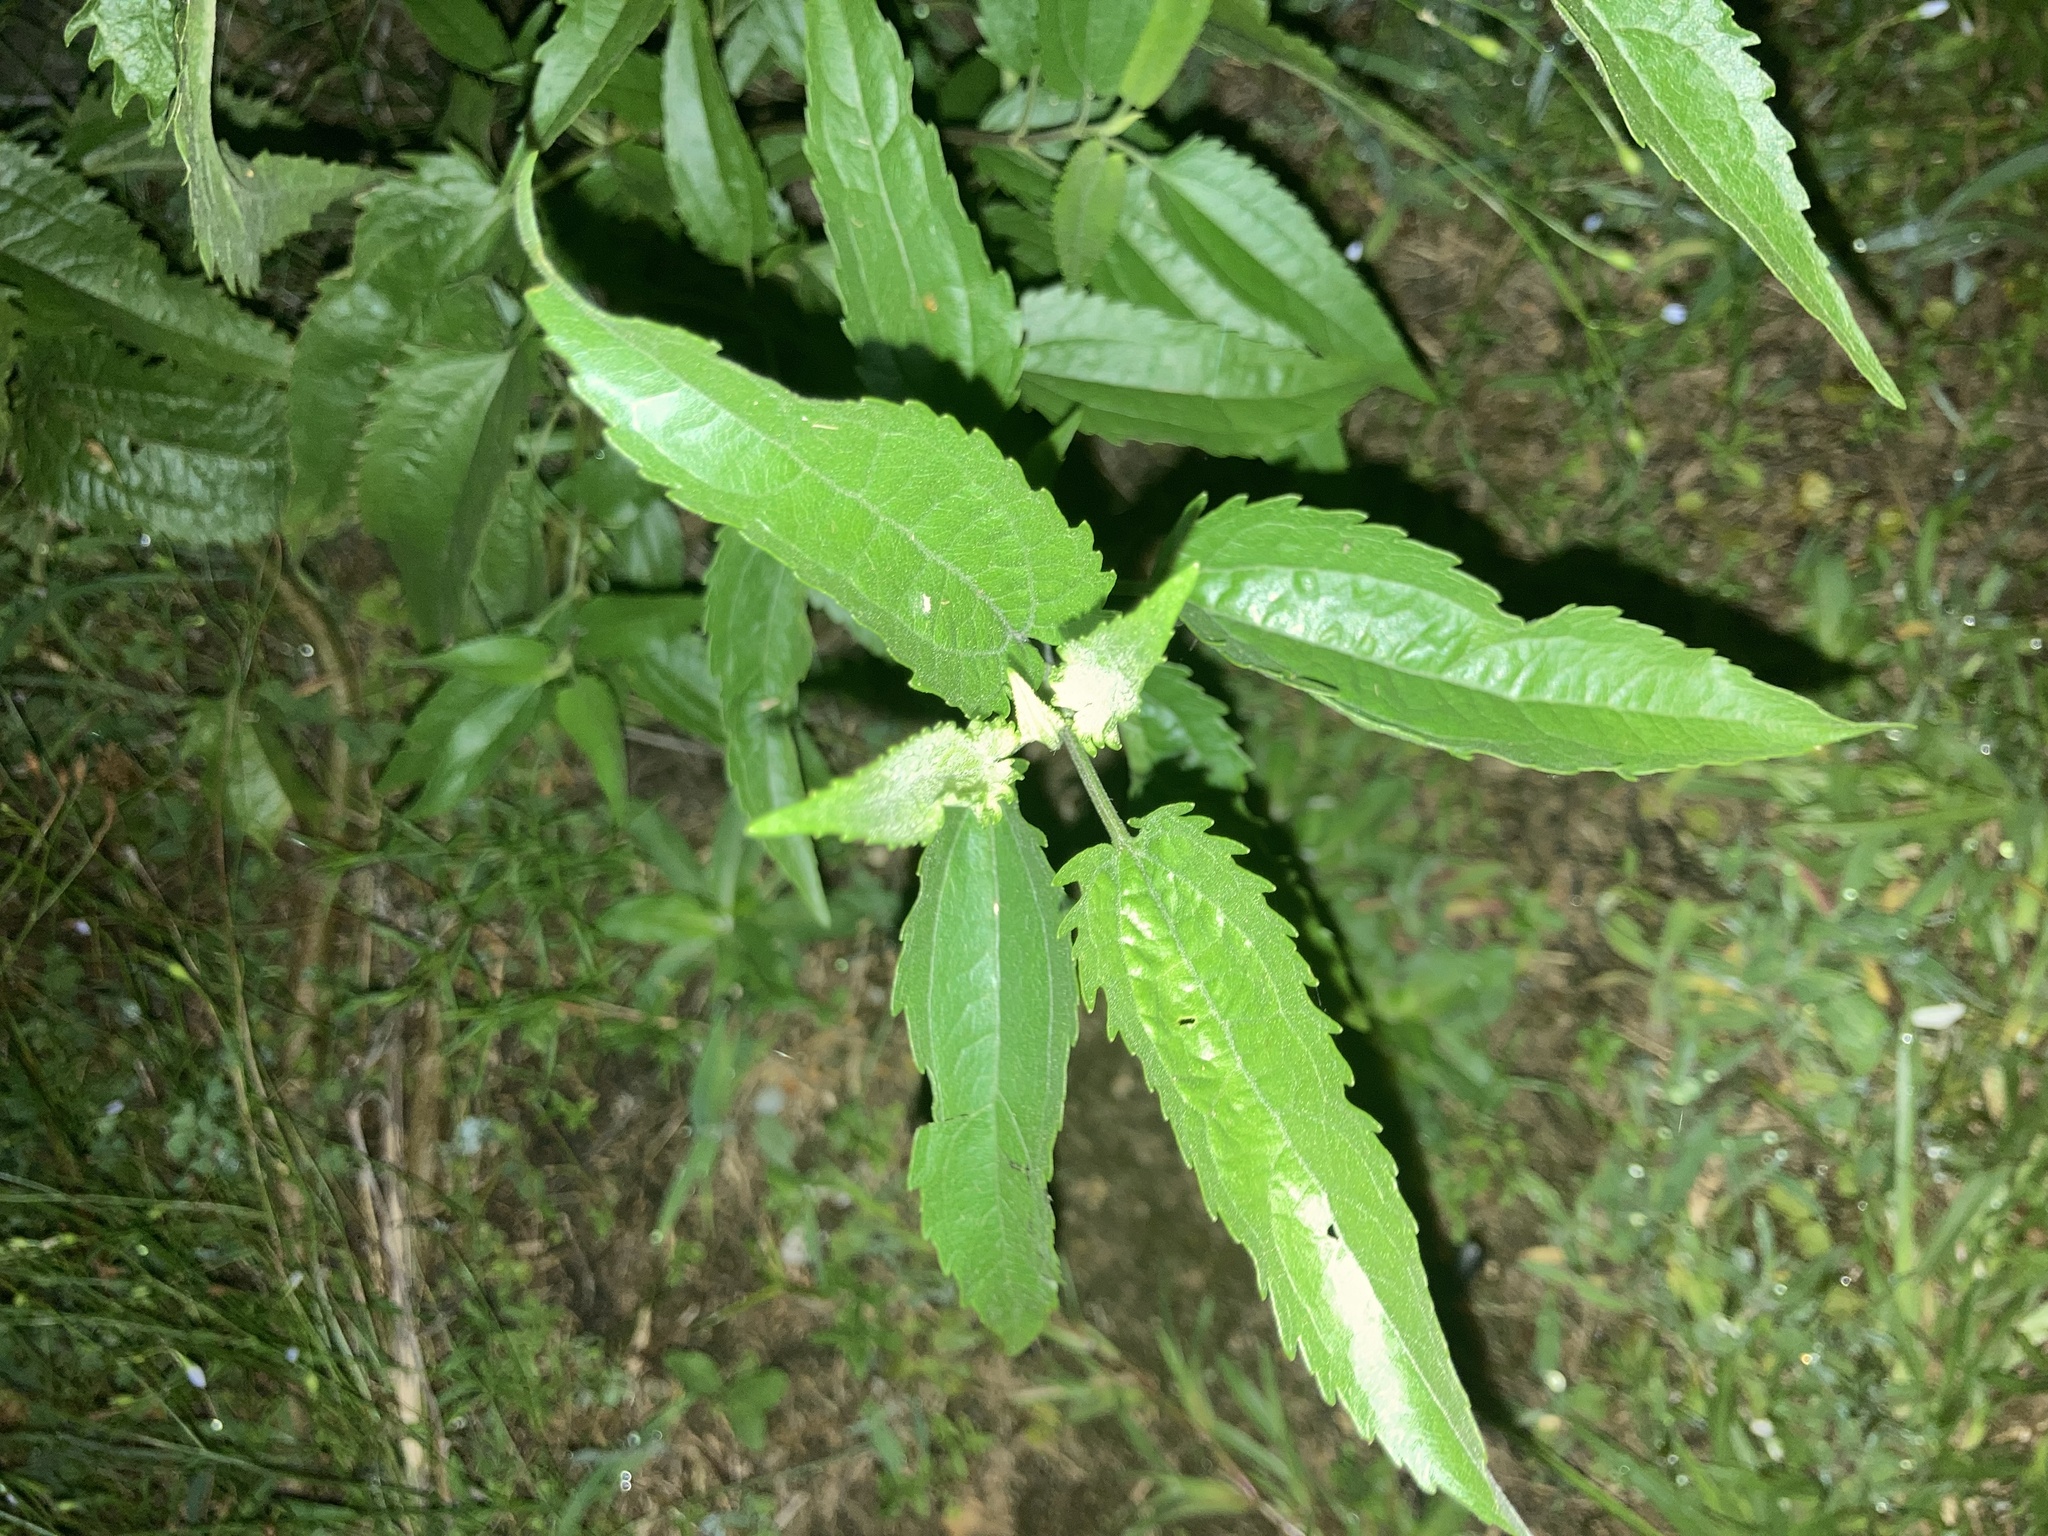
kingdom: Plantae
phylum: Tracheophyta
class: Magnoliopsida
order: Asterales
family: Asteraceae
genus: Eupatorium
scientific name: Eupatorium serotinum
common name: Late boneset
